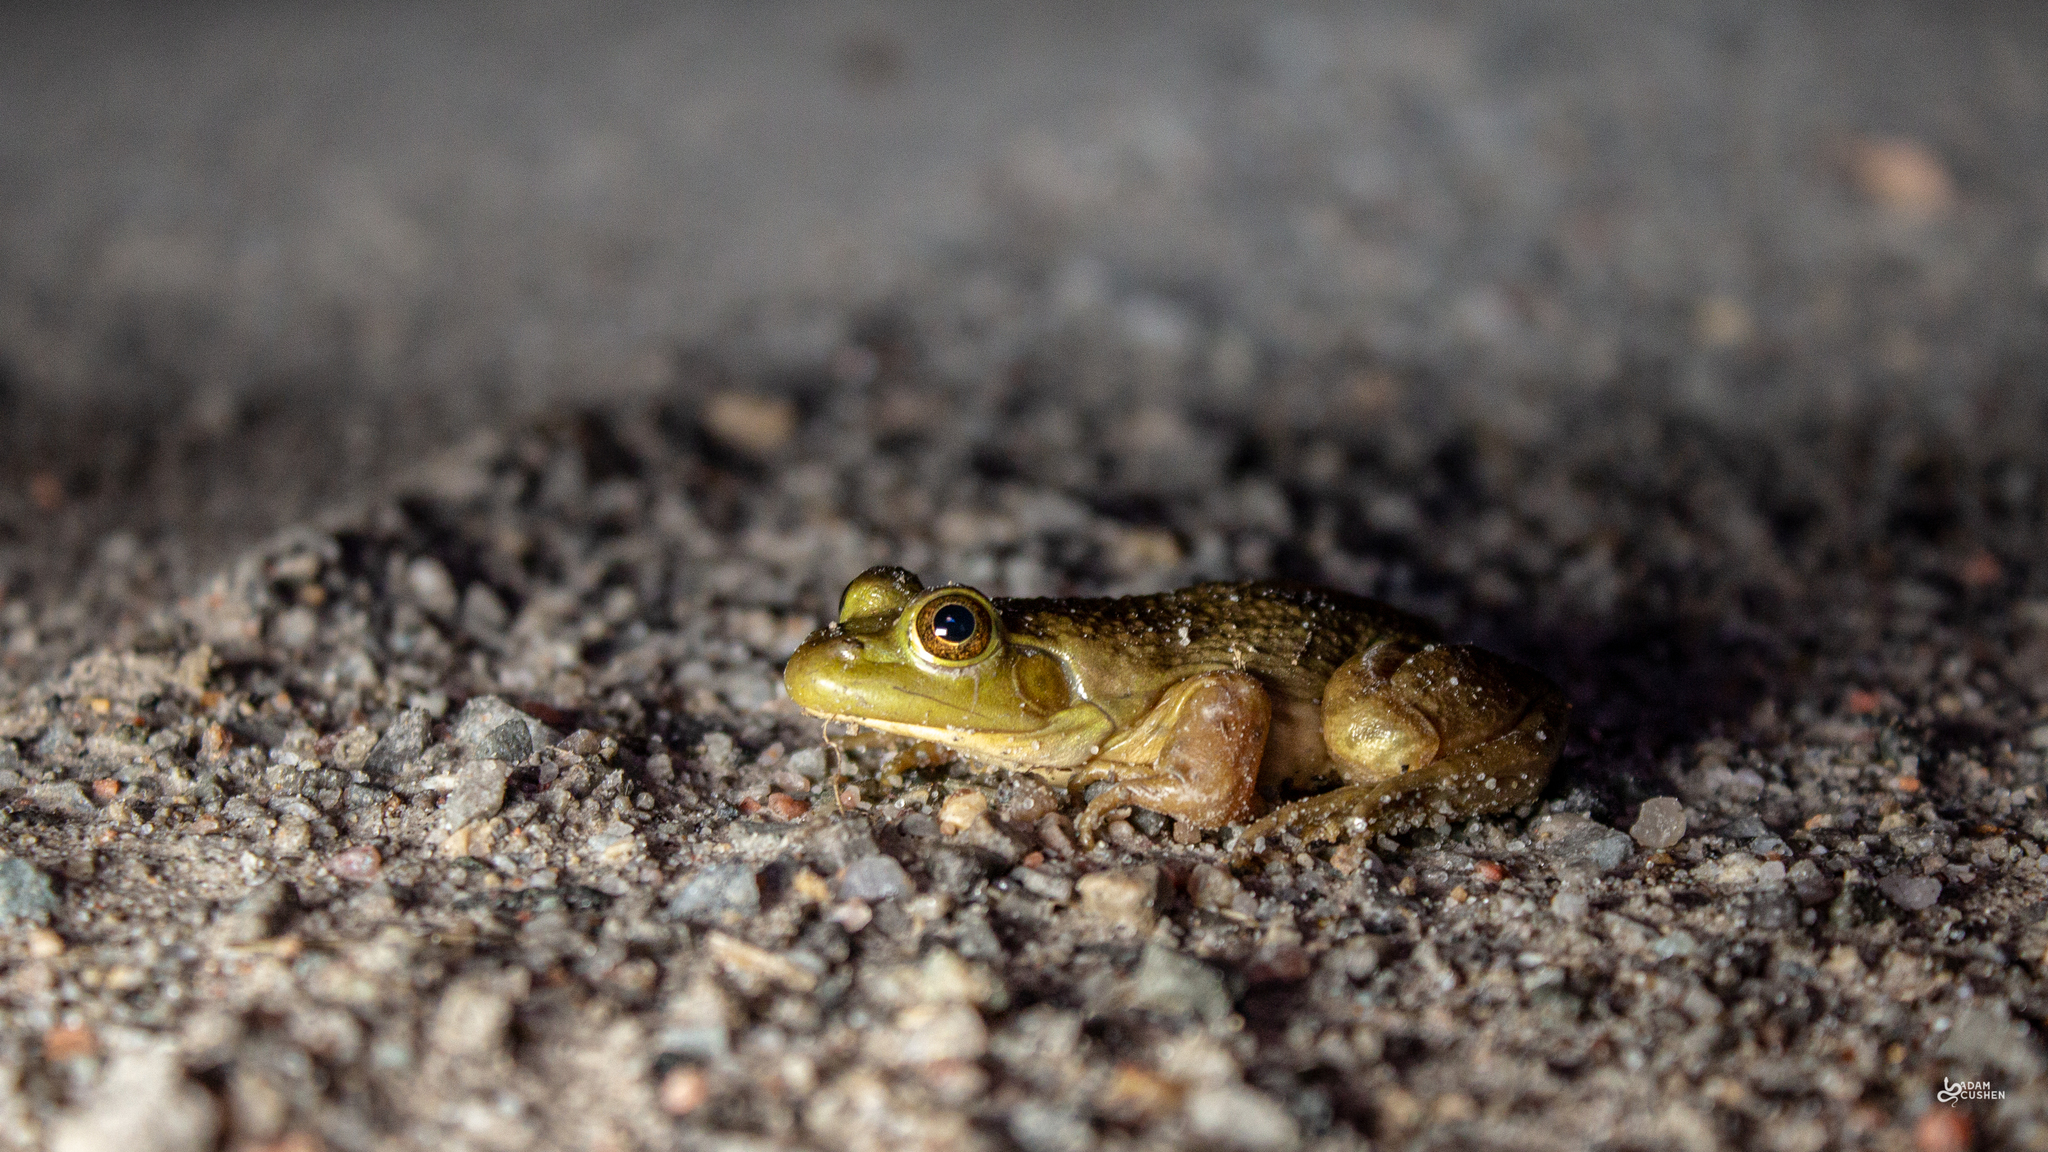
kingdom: Animalia
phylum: Chordata
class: Amphibia
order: Anura
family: Ranidae
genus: Lithobates
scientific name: Lithobates catesbeianus
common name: American bullfrog
